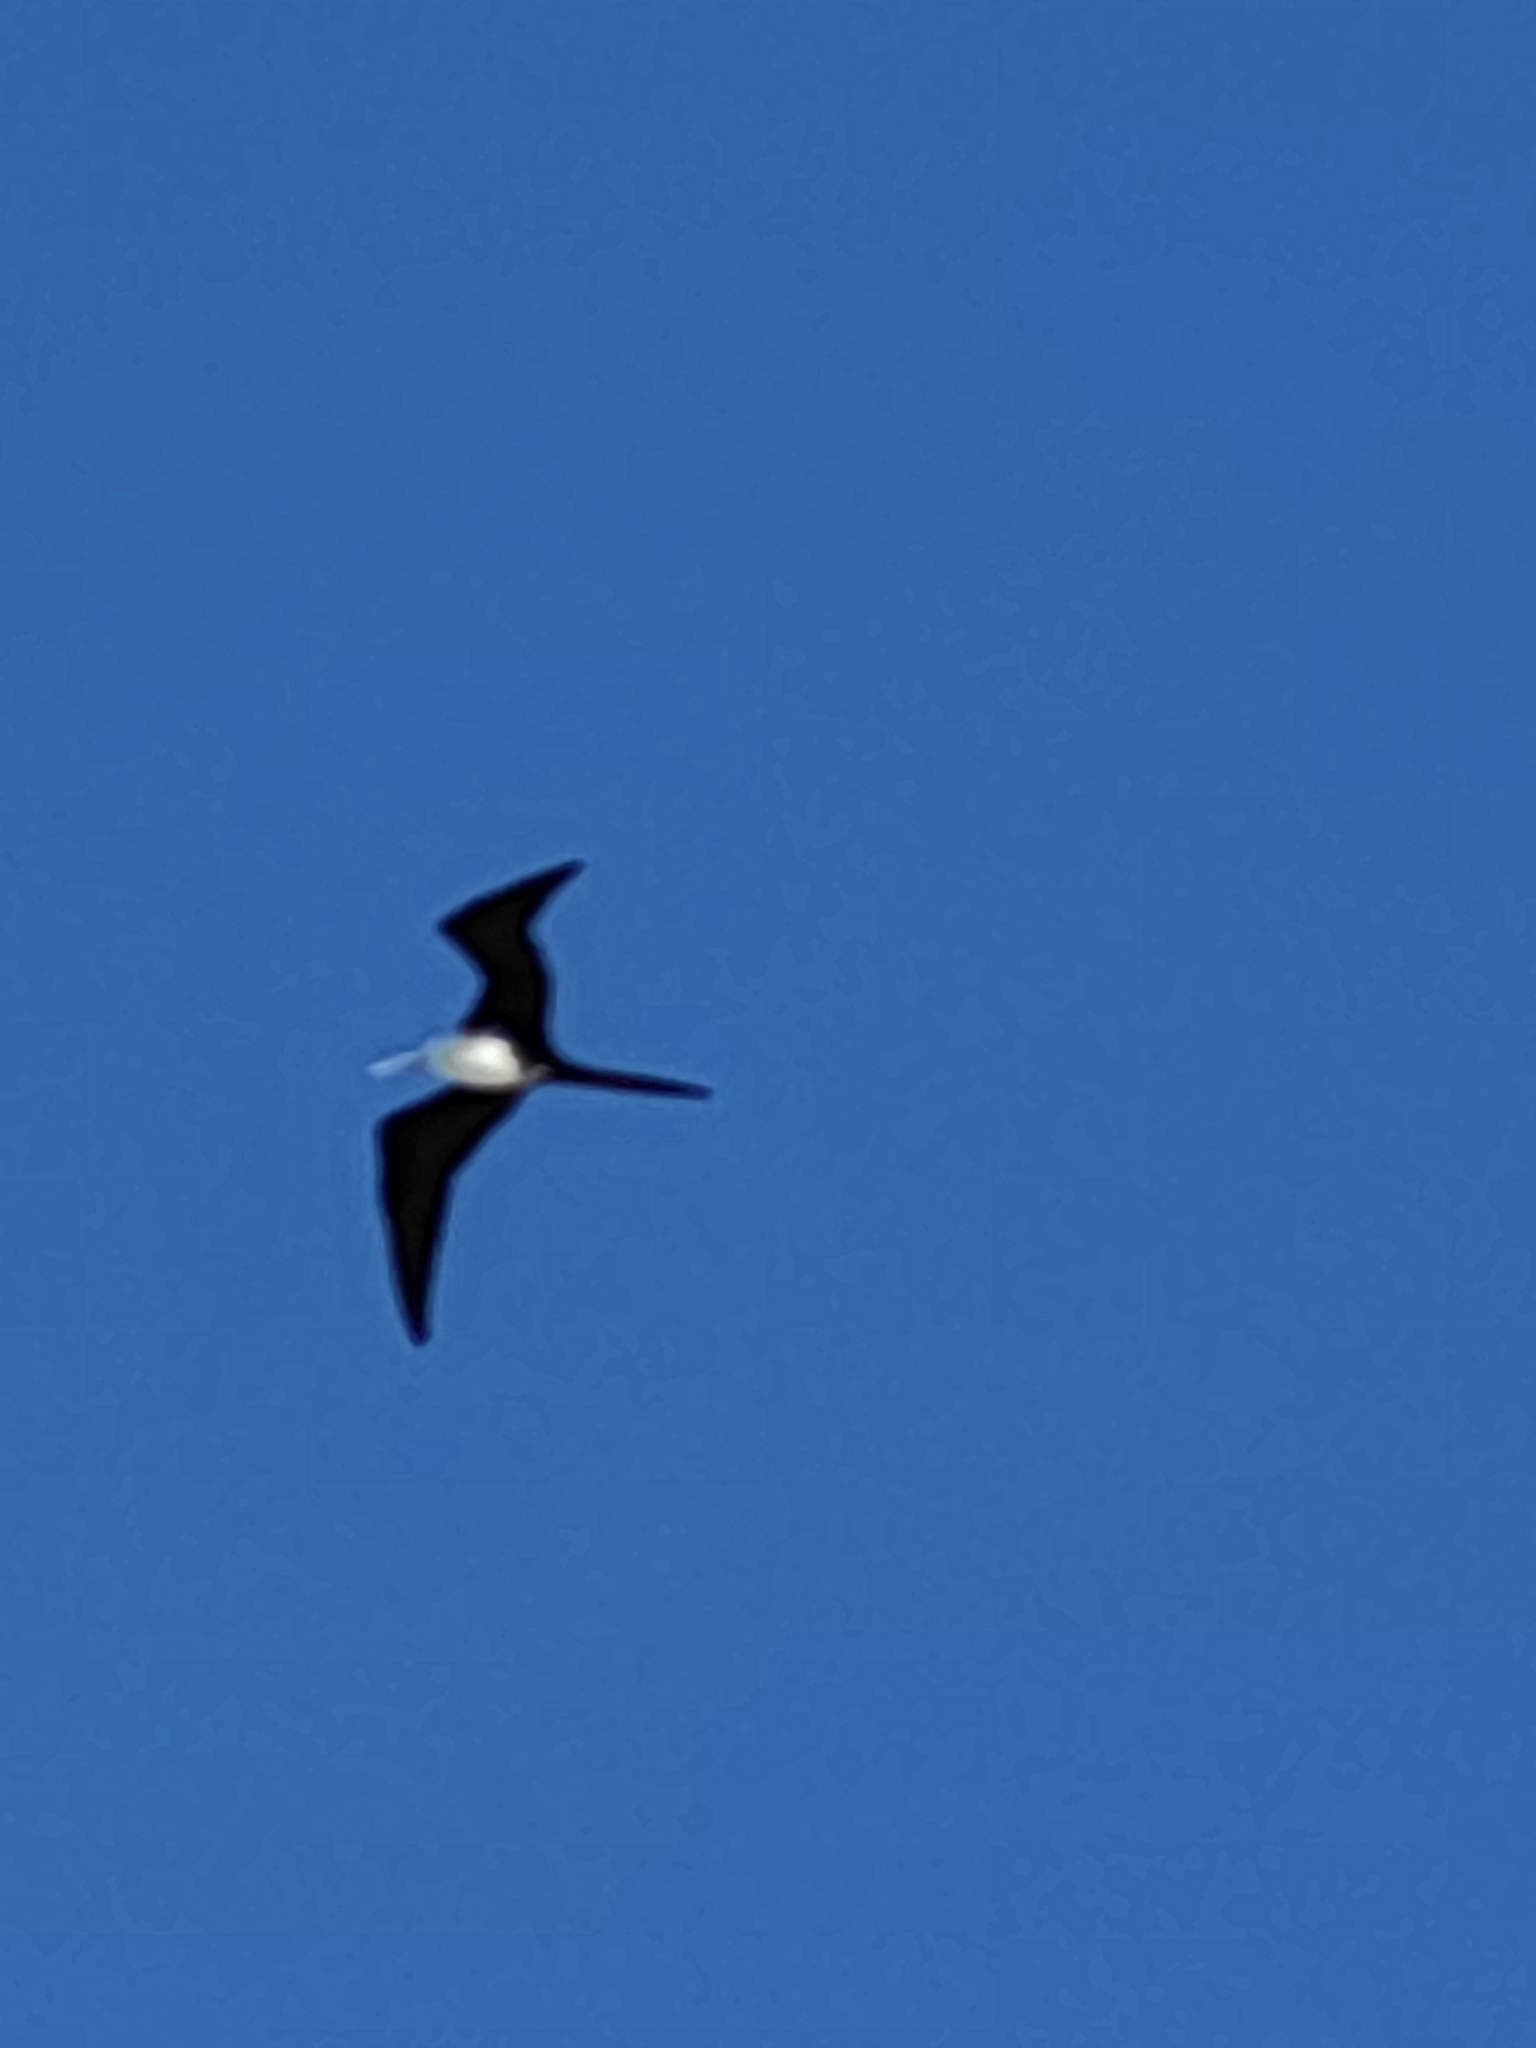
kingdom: Animalia
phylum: Chordata
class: Aves
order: Suliformes
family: Fregatidae
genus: Fregata
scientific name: Fregata magnificens
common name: Magnificent frigatebird
